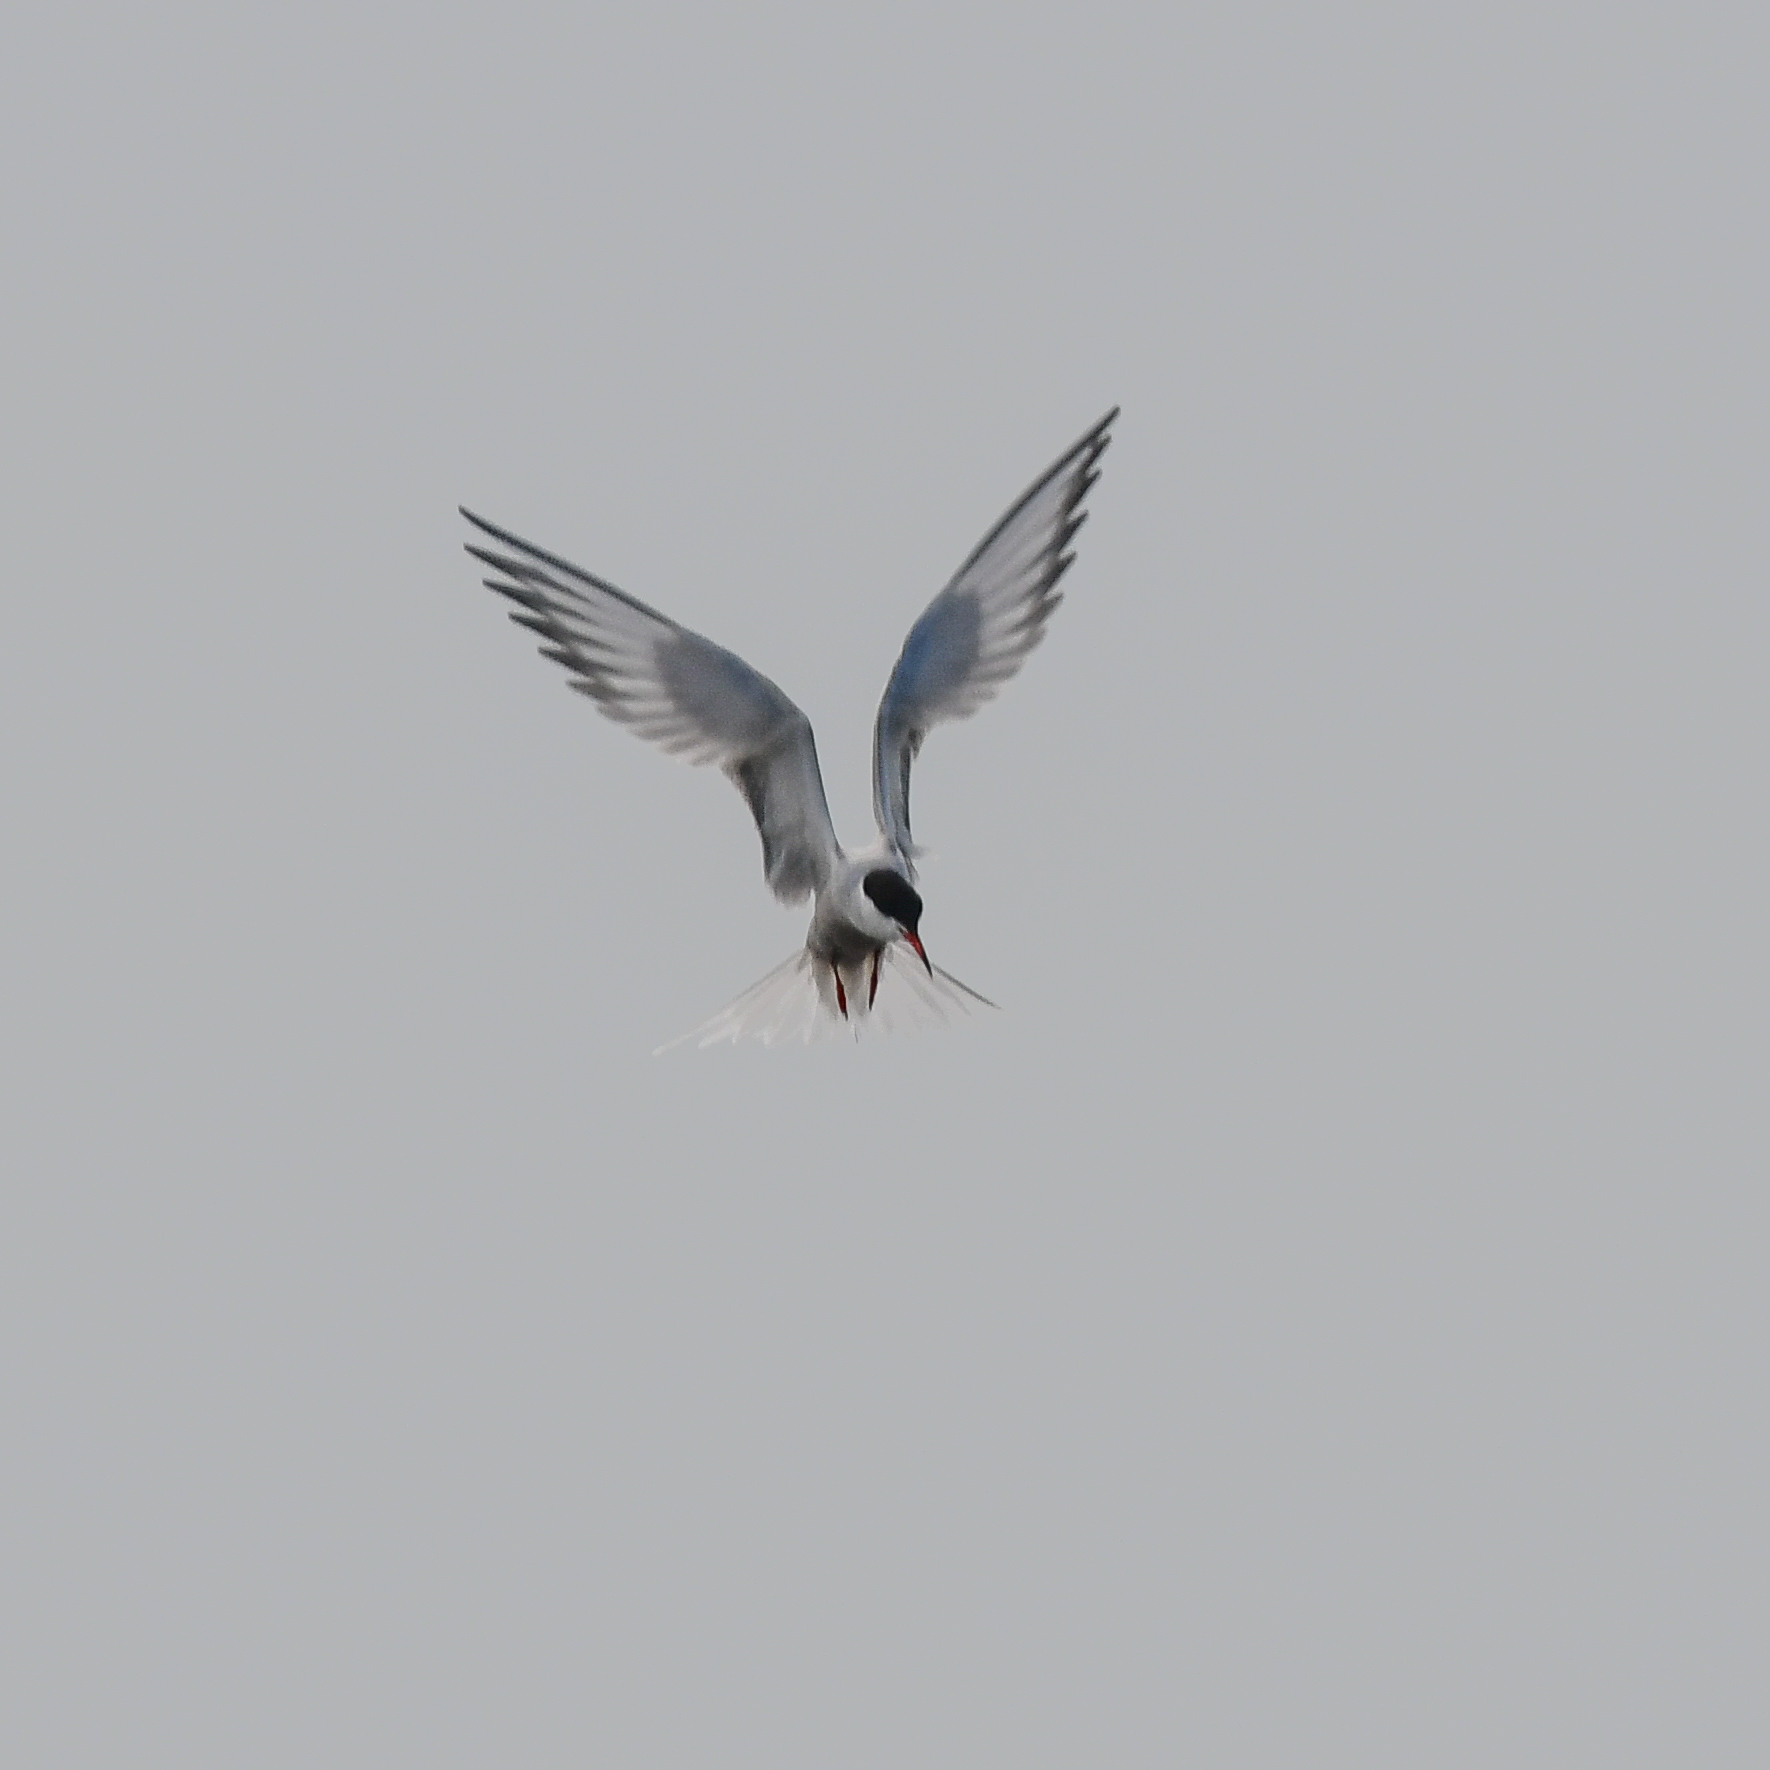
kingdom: Animalia
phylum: Chordata
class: Aves
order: Charadriiformes
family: Laridae
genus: Sterna
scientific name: Sterna hirundo
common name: Common tern
